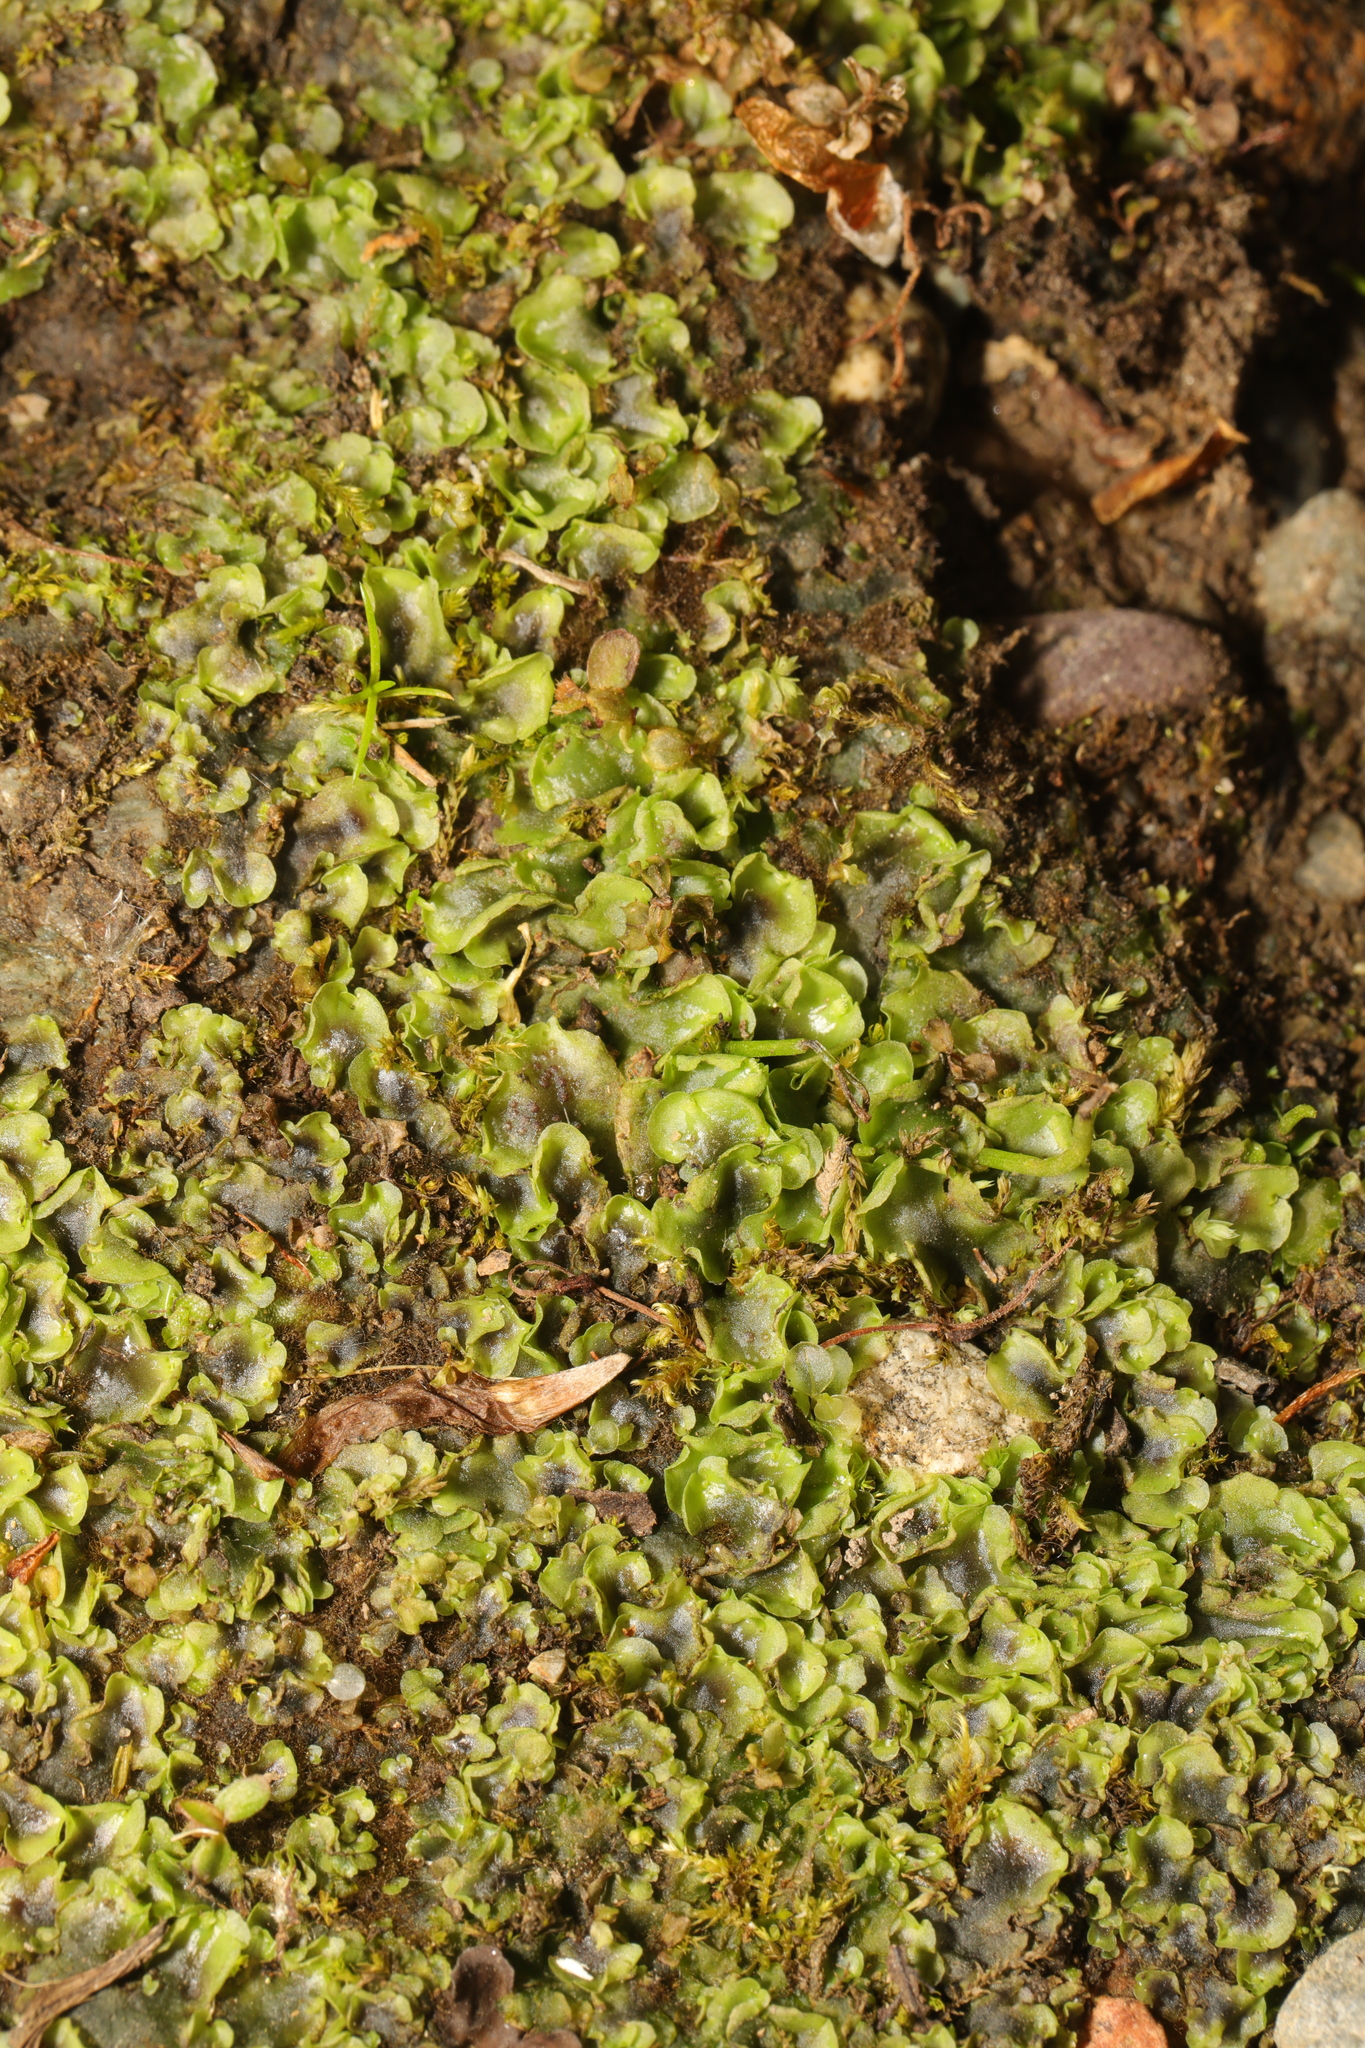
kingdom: Plantae
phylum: Marchantiophyta
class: Jungermanniopsida
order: Pelliales
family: Pelliaceae
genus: Pellia
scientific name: Pellia epiphylla
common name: Common pellia
